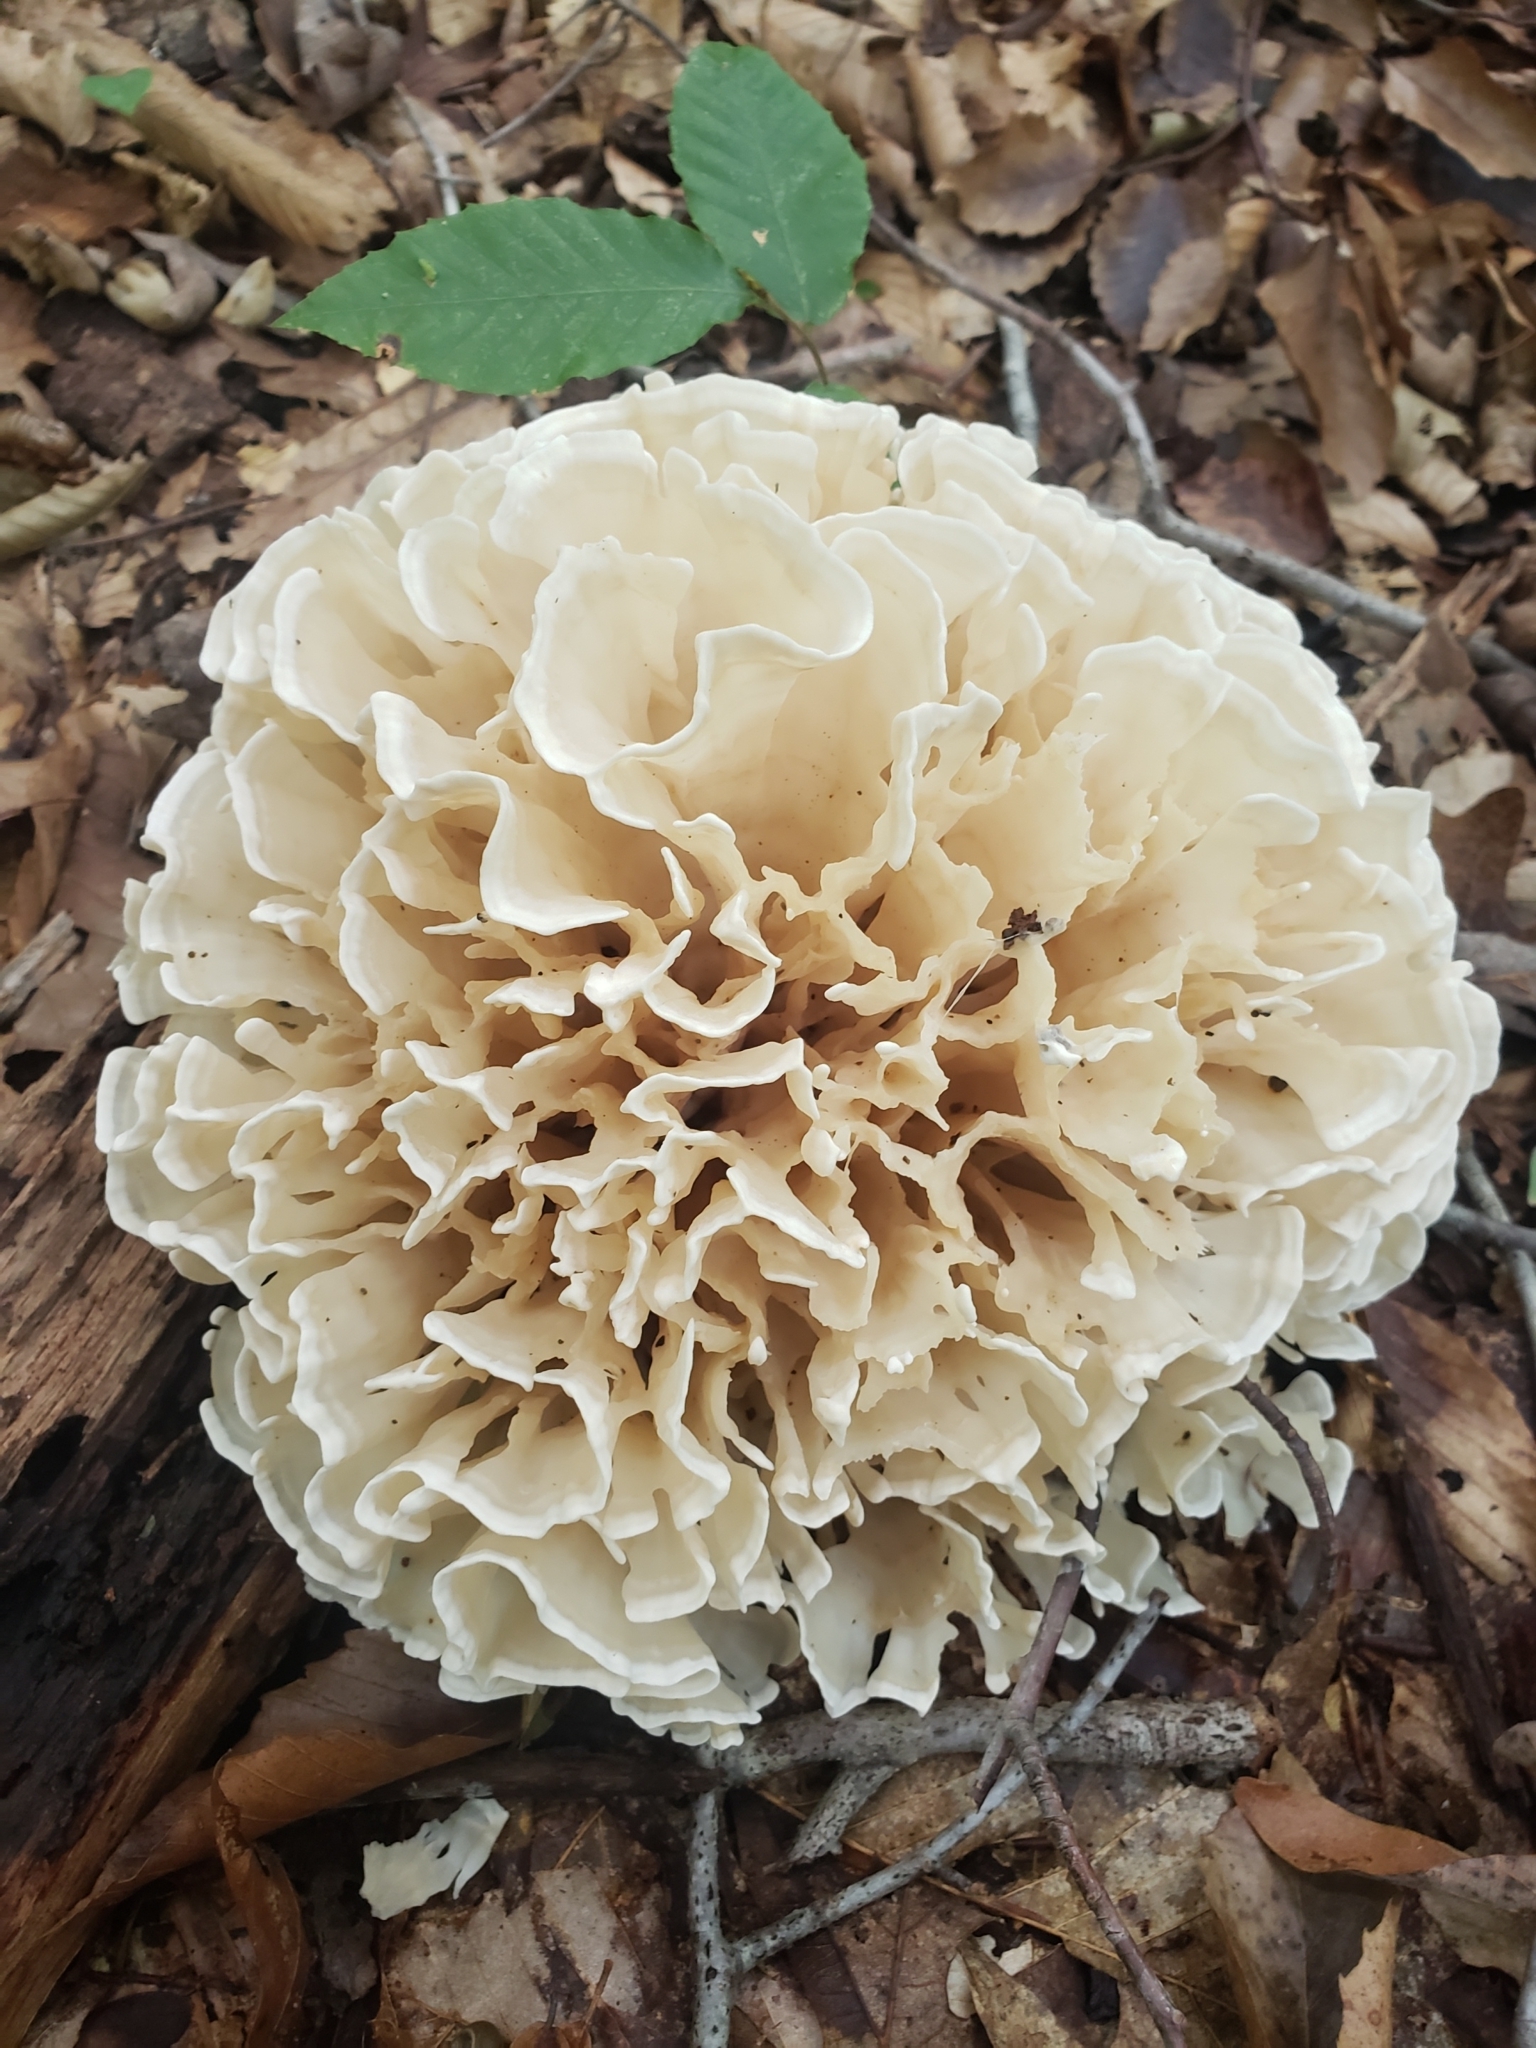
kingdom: Fungi
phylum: Basidiomycota
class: Agaricomycetes
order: Polyporales
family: Sparassidaceae
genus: Sparassis
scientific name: Sparassis spathulata
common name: Eastern cauliflower mushroom
